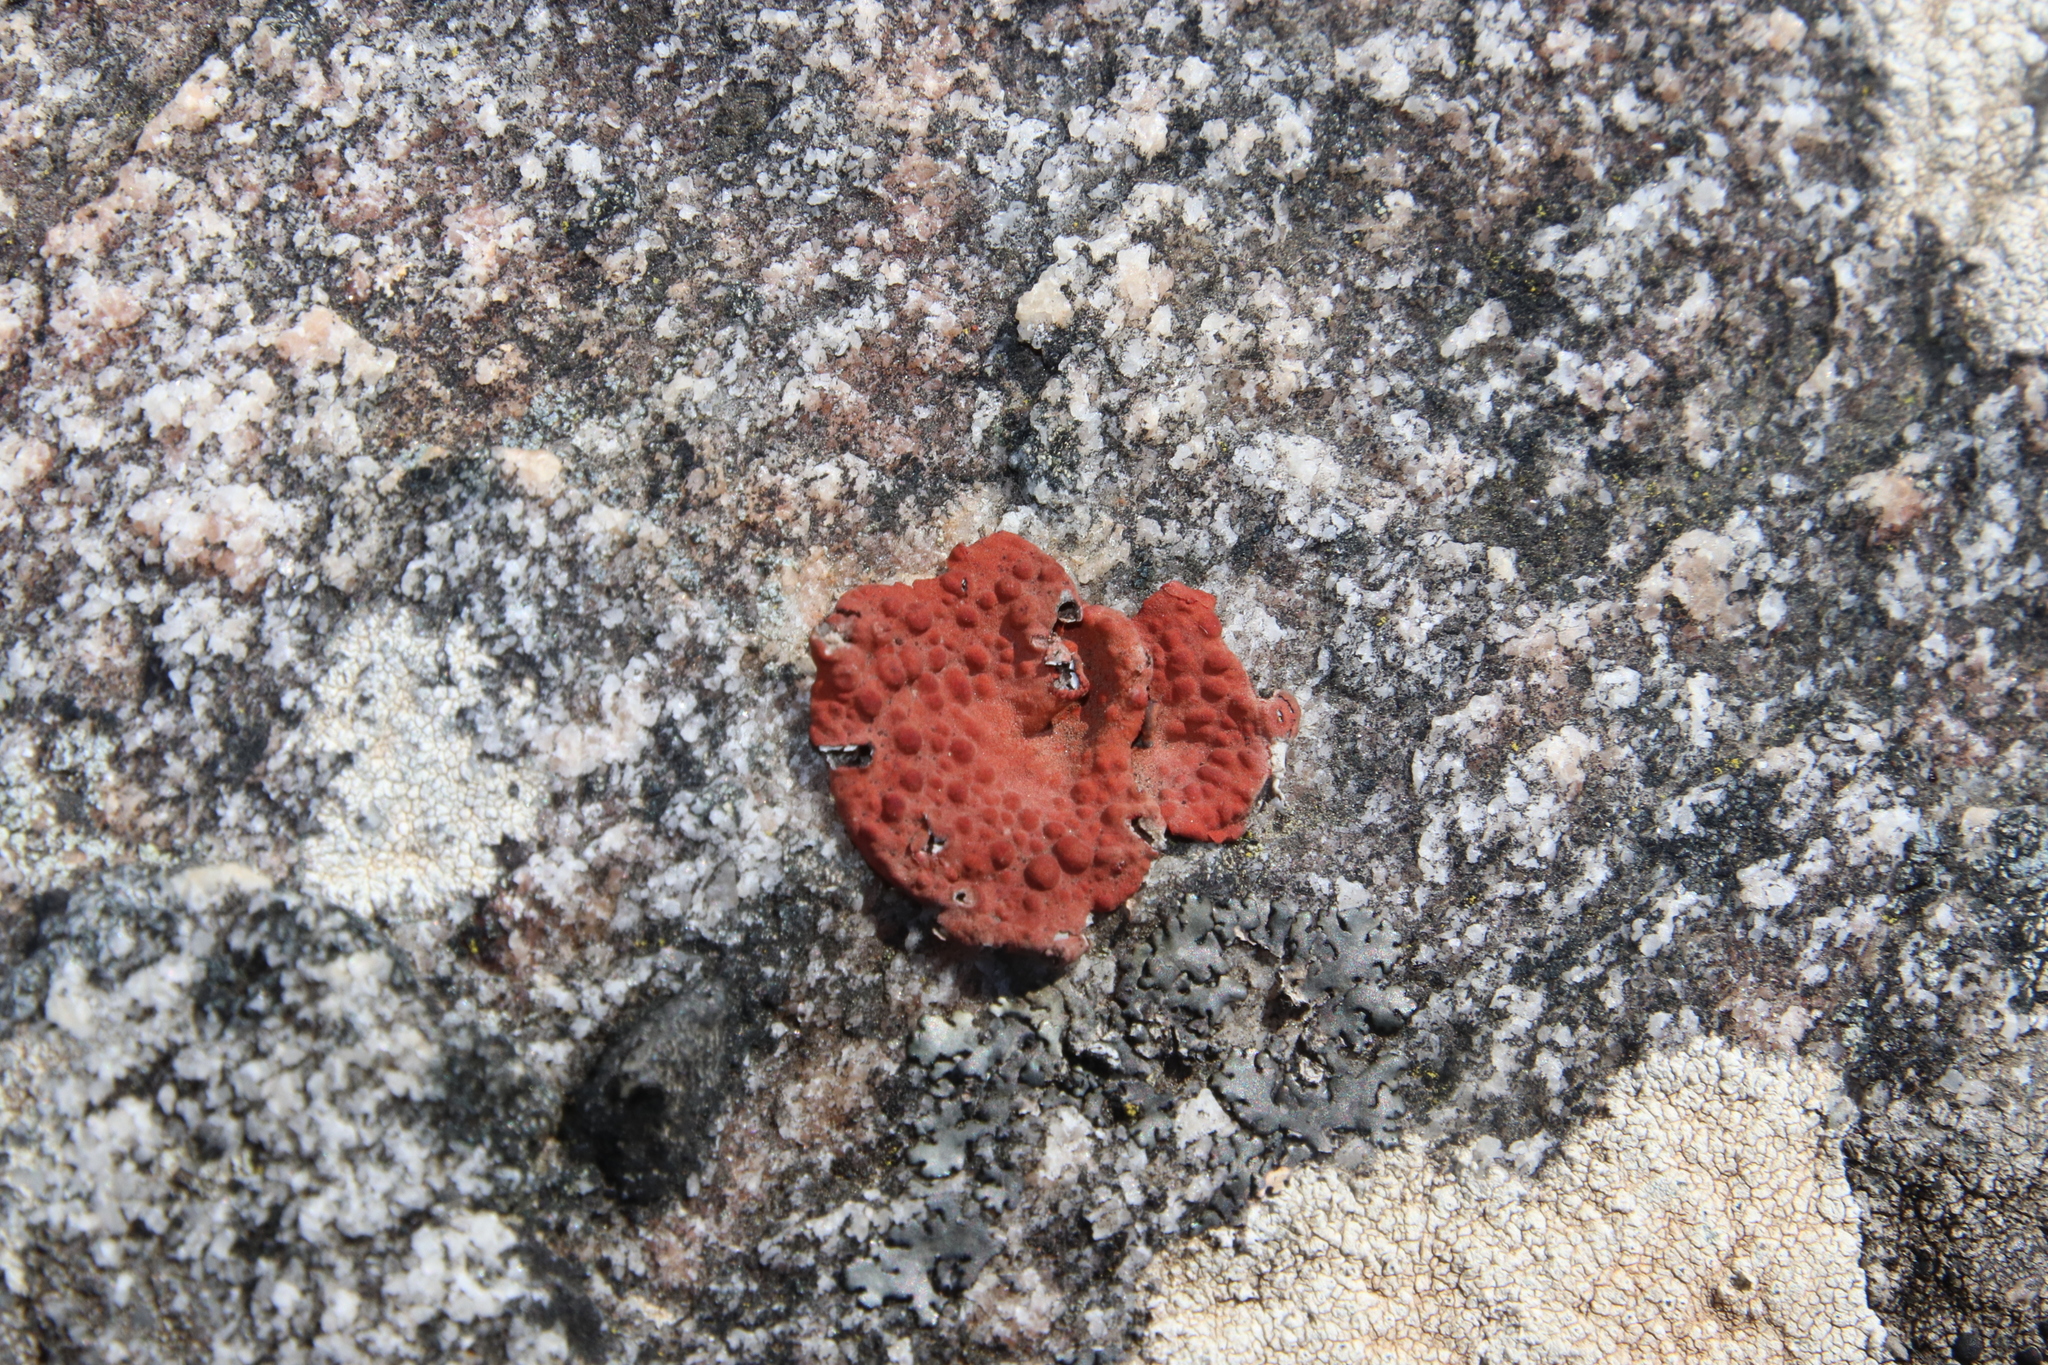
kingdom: Fungi
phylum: Ascomycota
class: Lecanoromycetes
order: Umbilicariales
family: Umbilicariaceae
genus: Lasallia
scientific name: Lasallia rubiginosa
